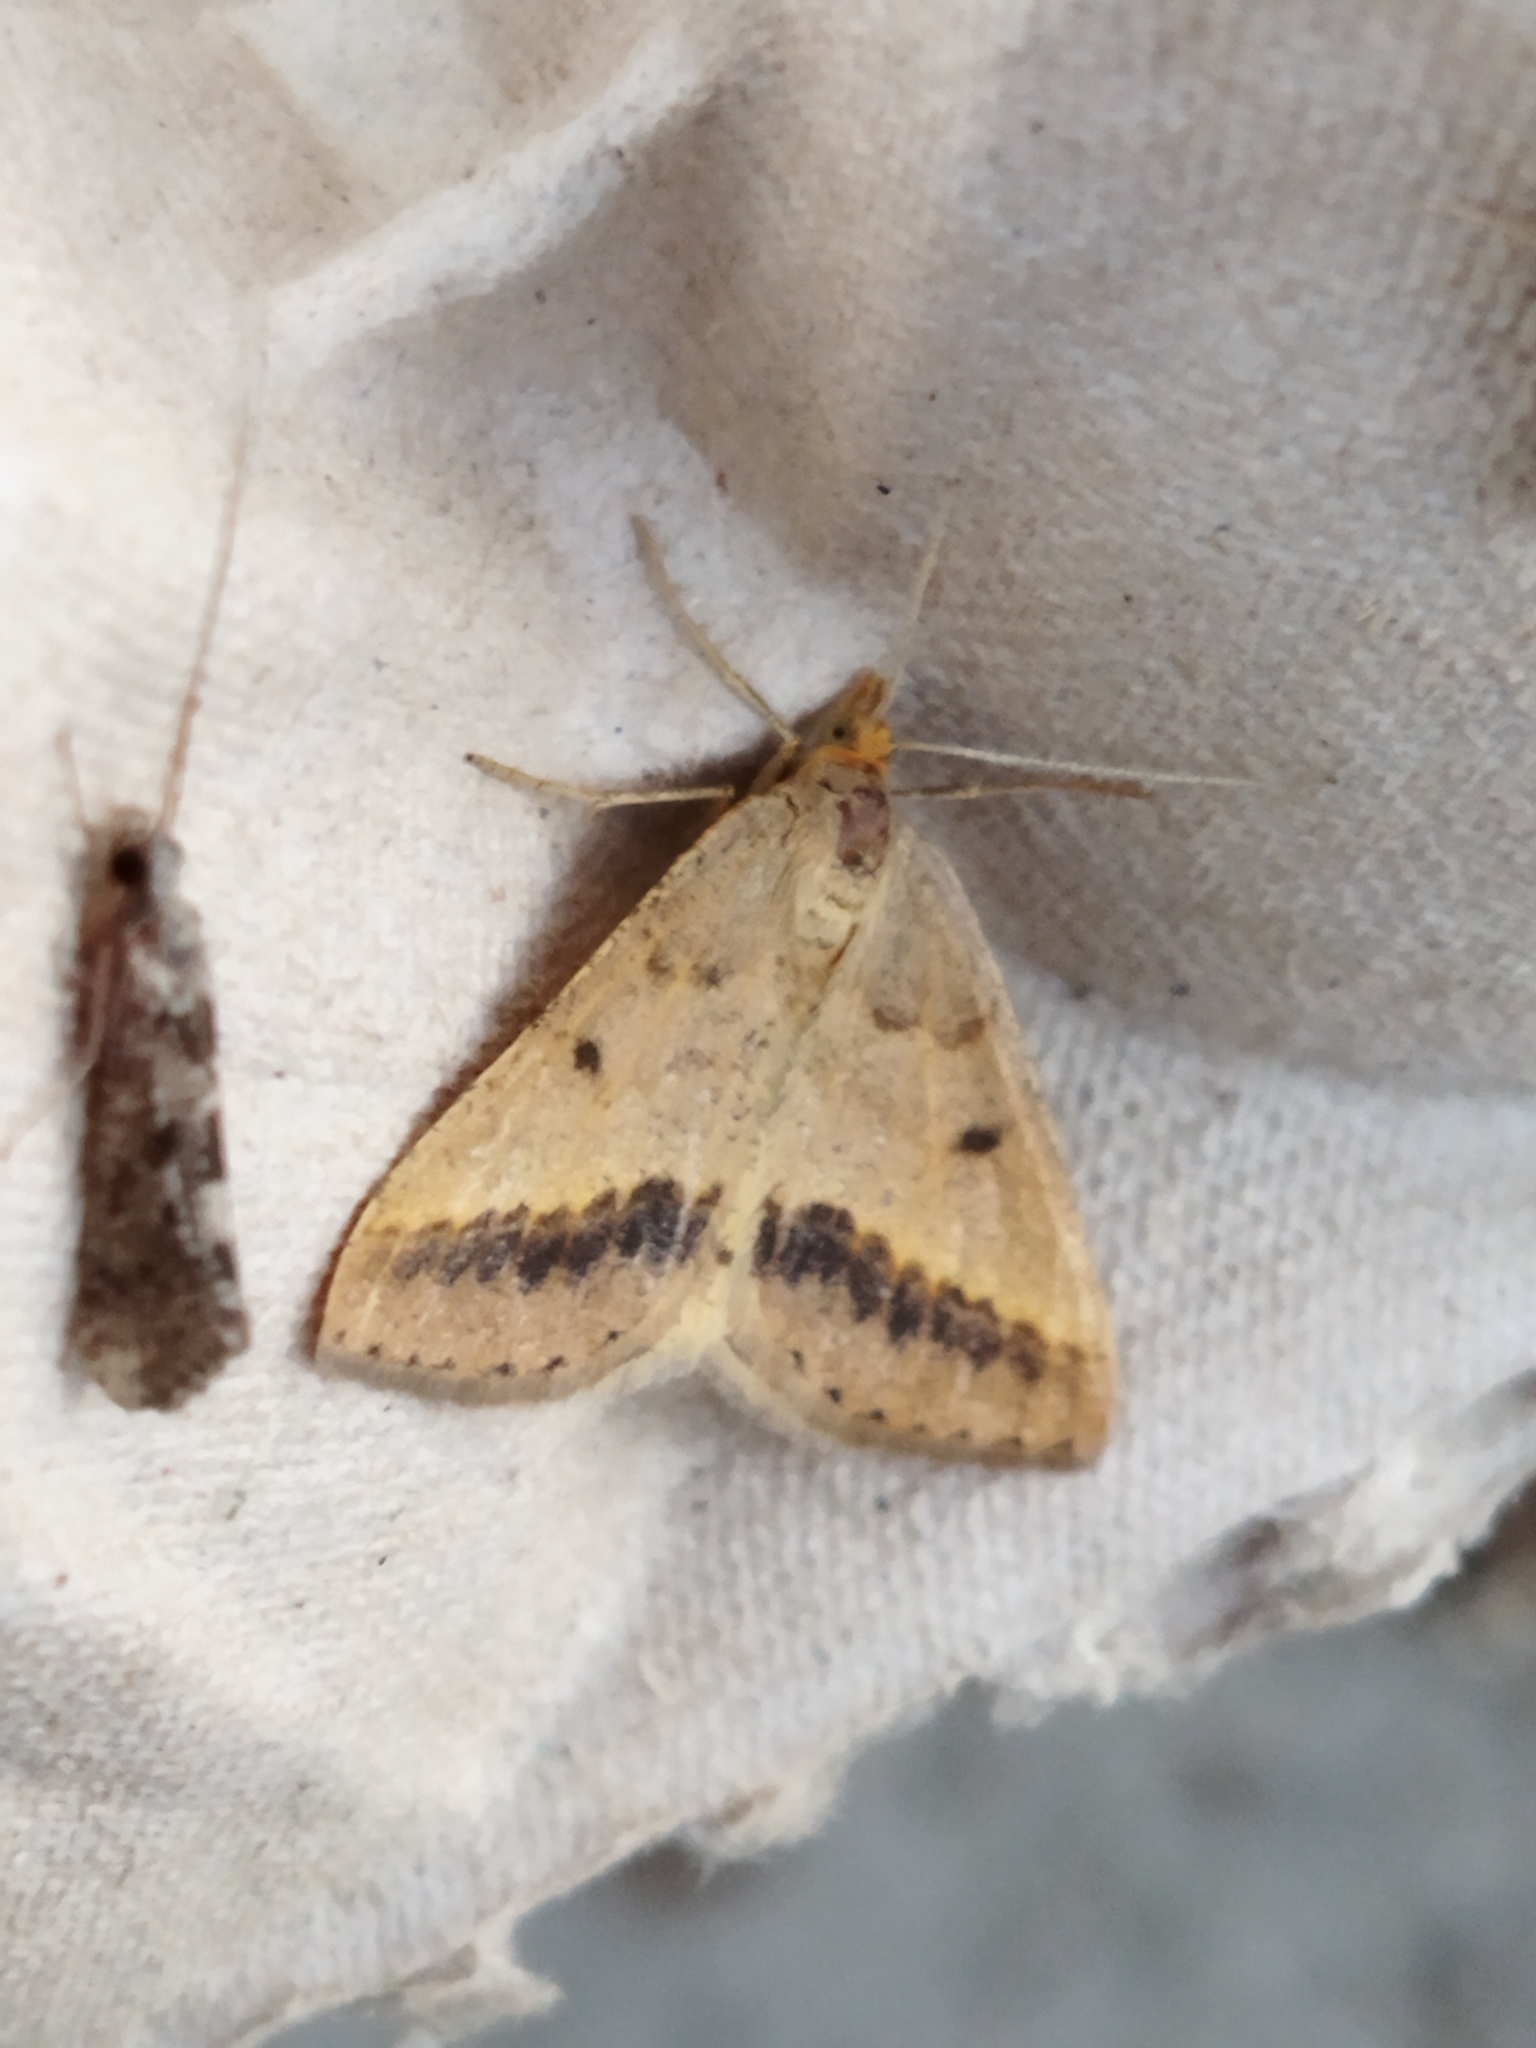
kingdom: Animalia
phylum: Arthropoda
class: Insecta
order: Lepidoptera
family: Geometridae
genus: Tephrina
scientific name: Tephrina arenacearia
